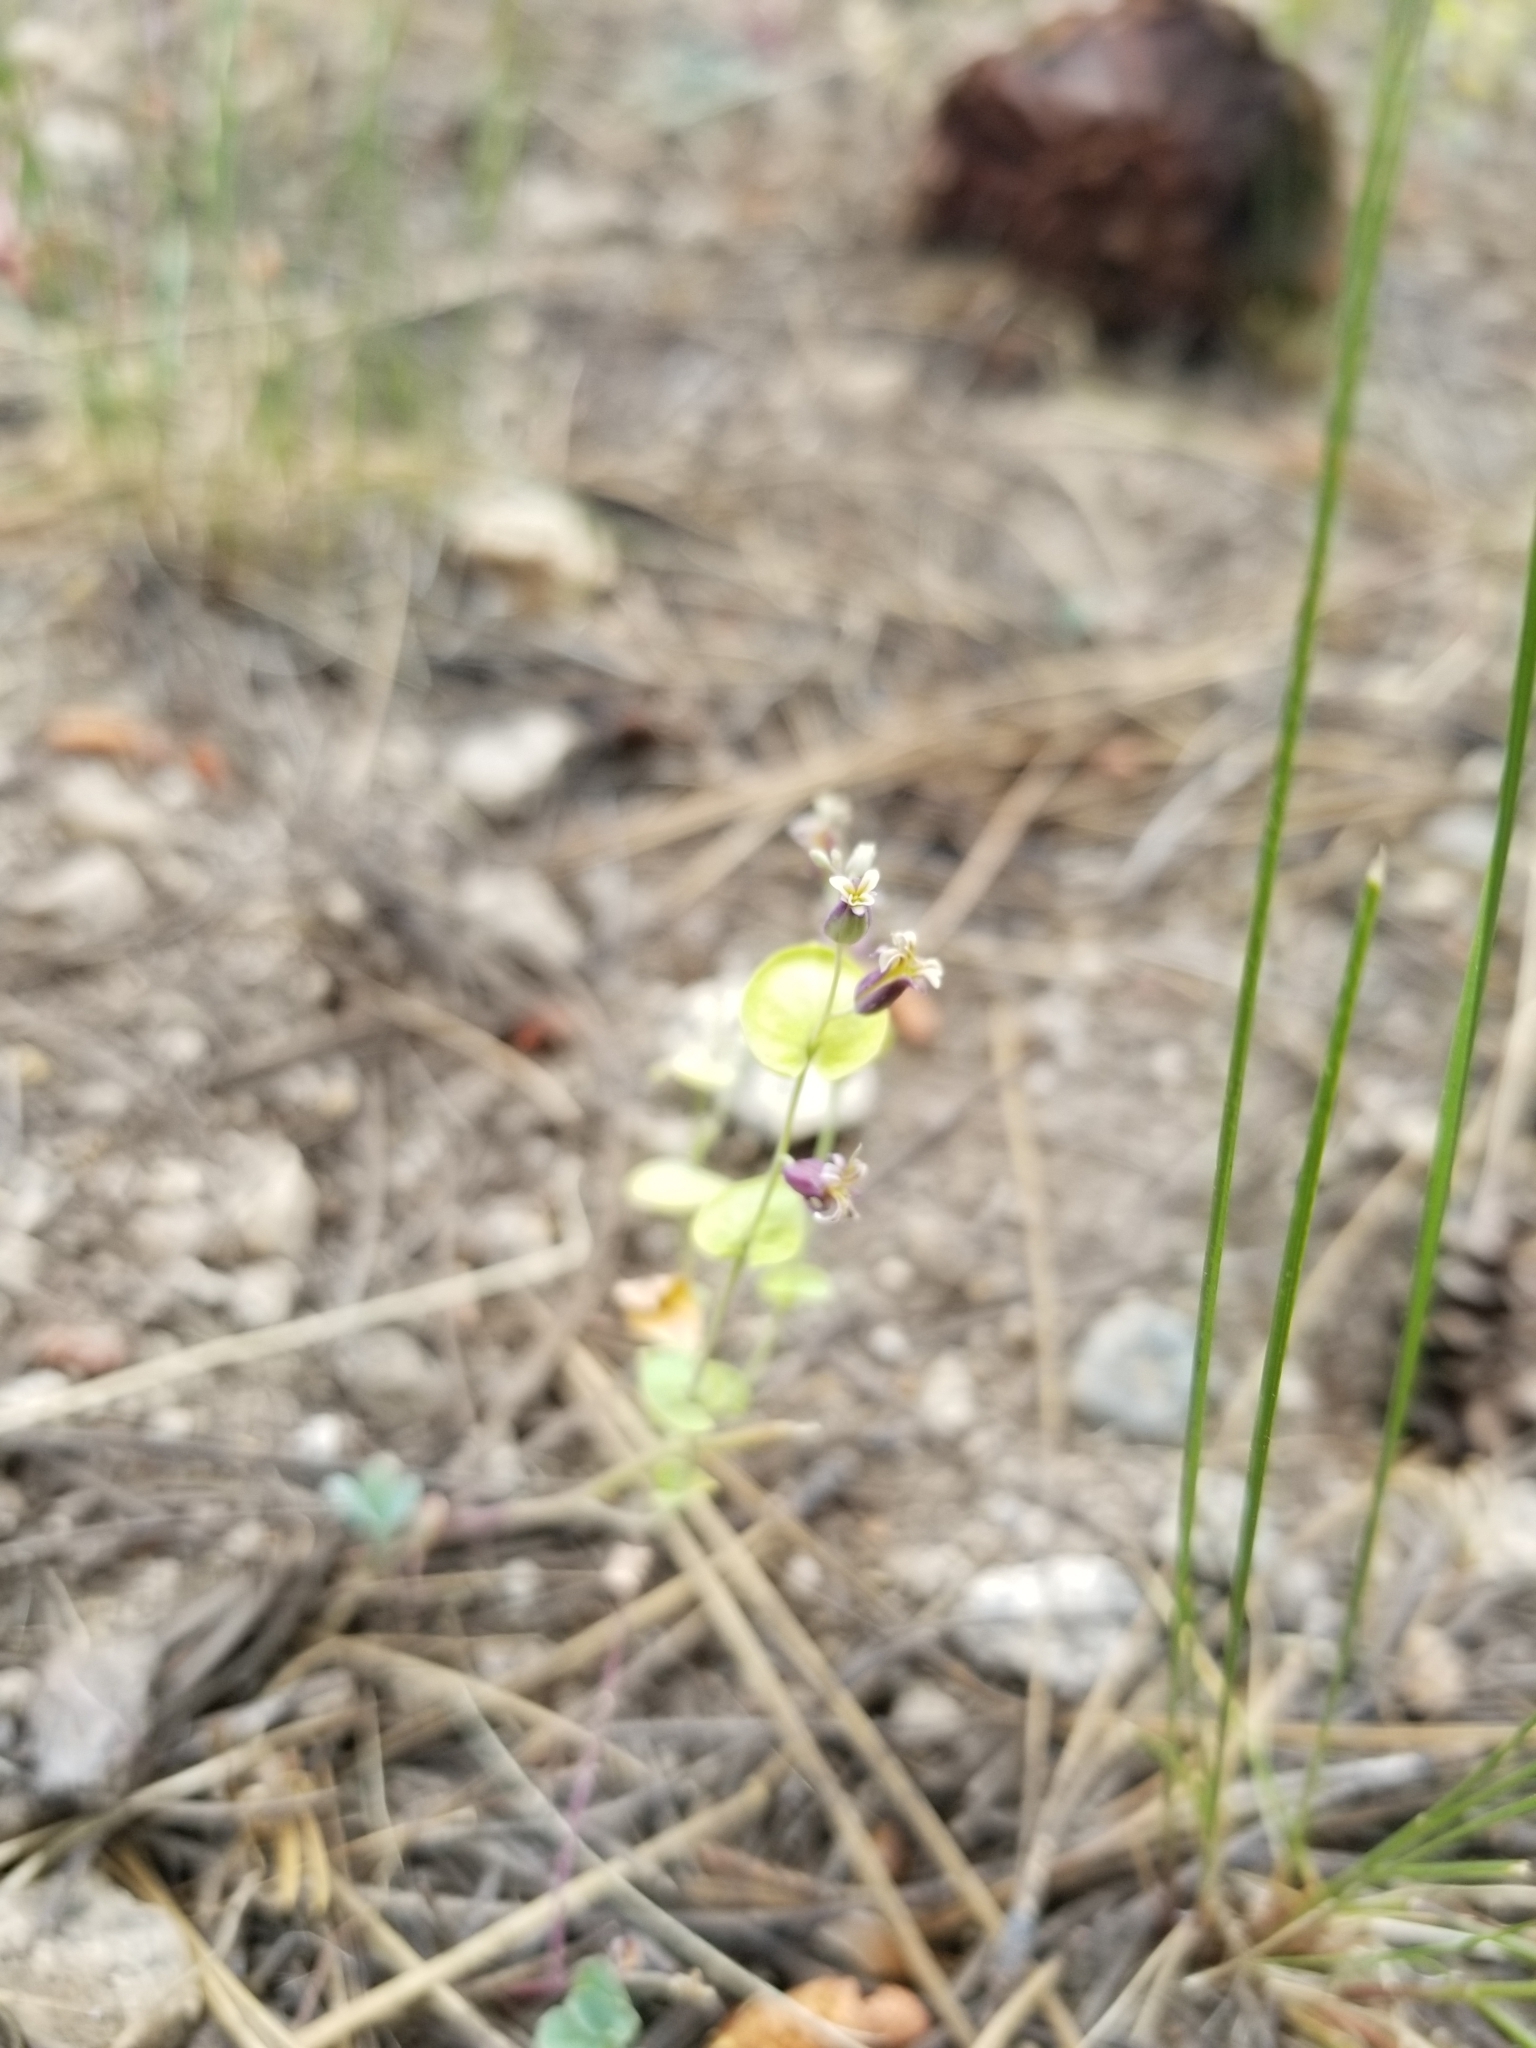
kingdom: Plantae
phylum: Tracheophyta
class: Magnoliopsida
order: Brassicales
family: Brassicaceae
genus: Streptanthus
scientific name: Streptanthus tortuosus
